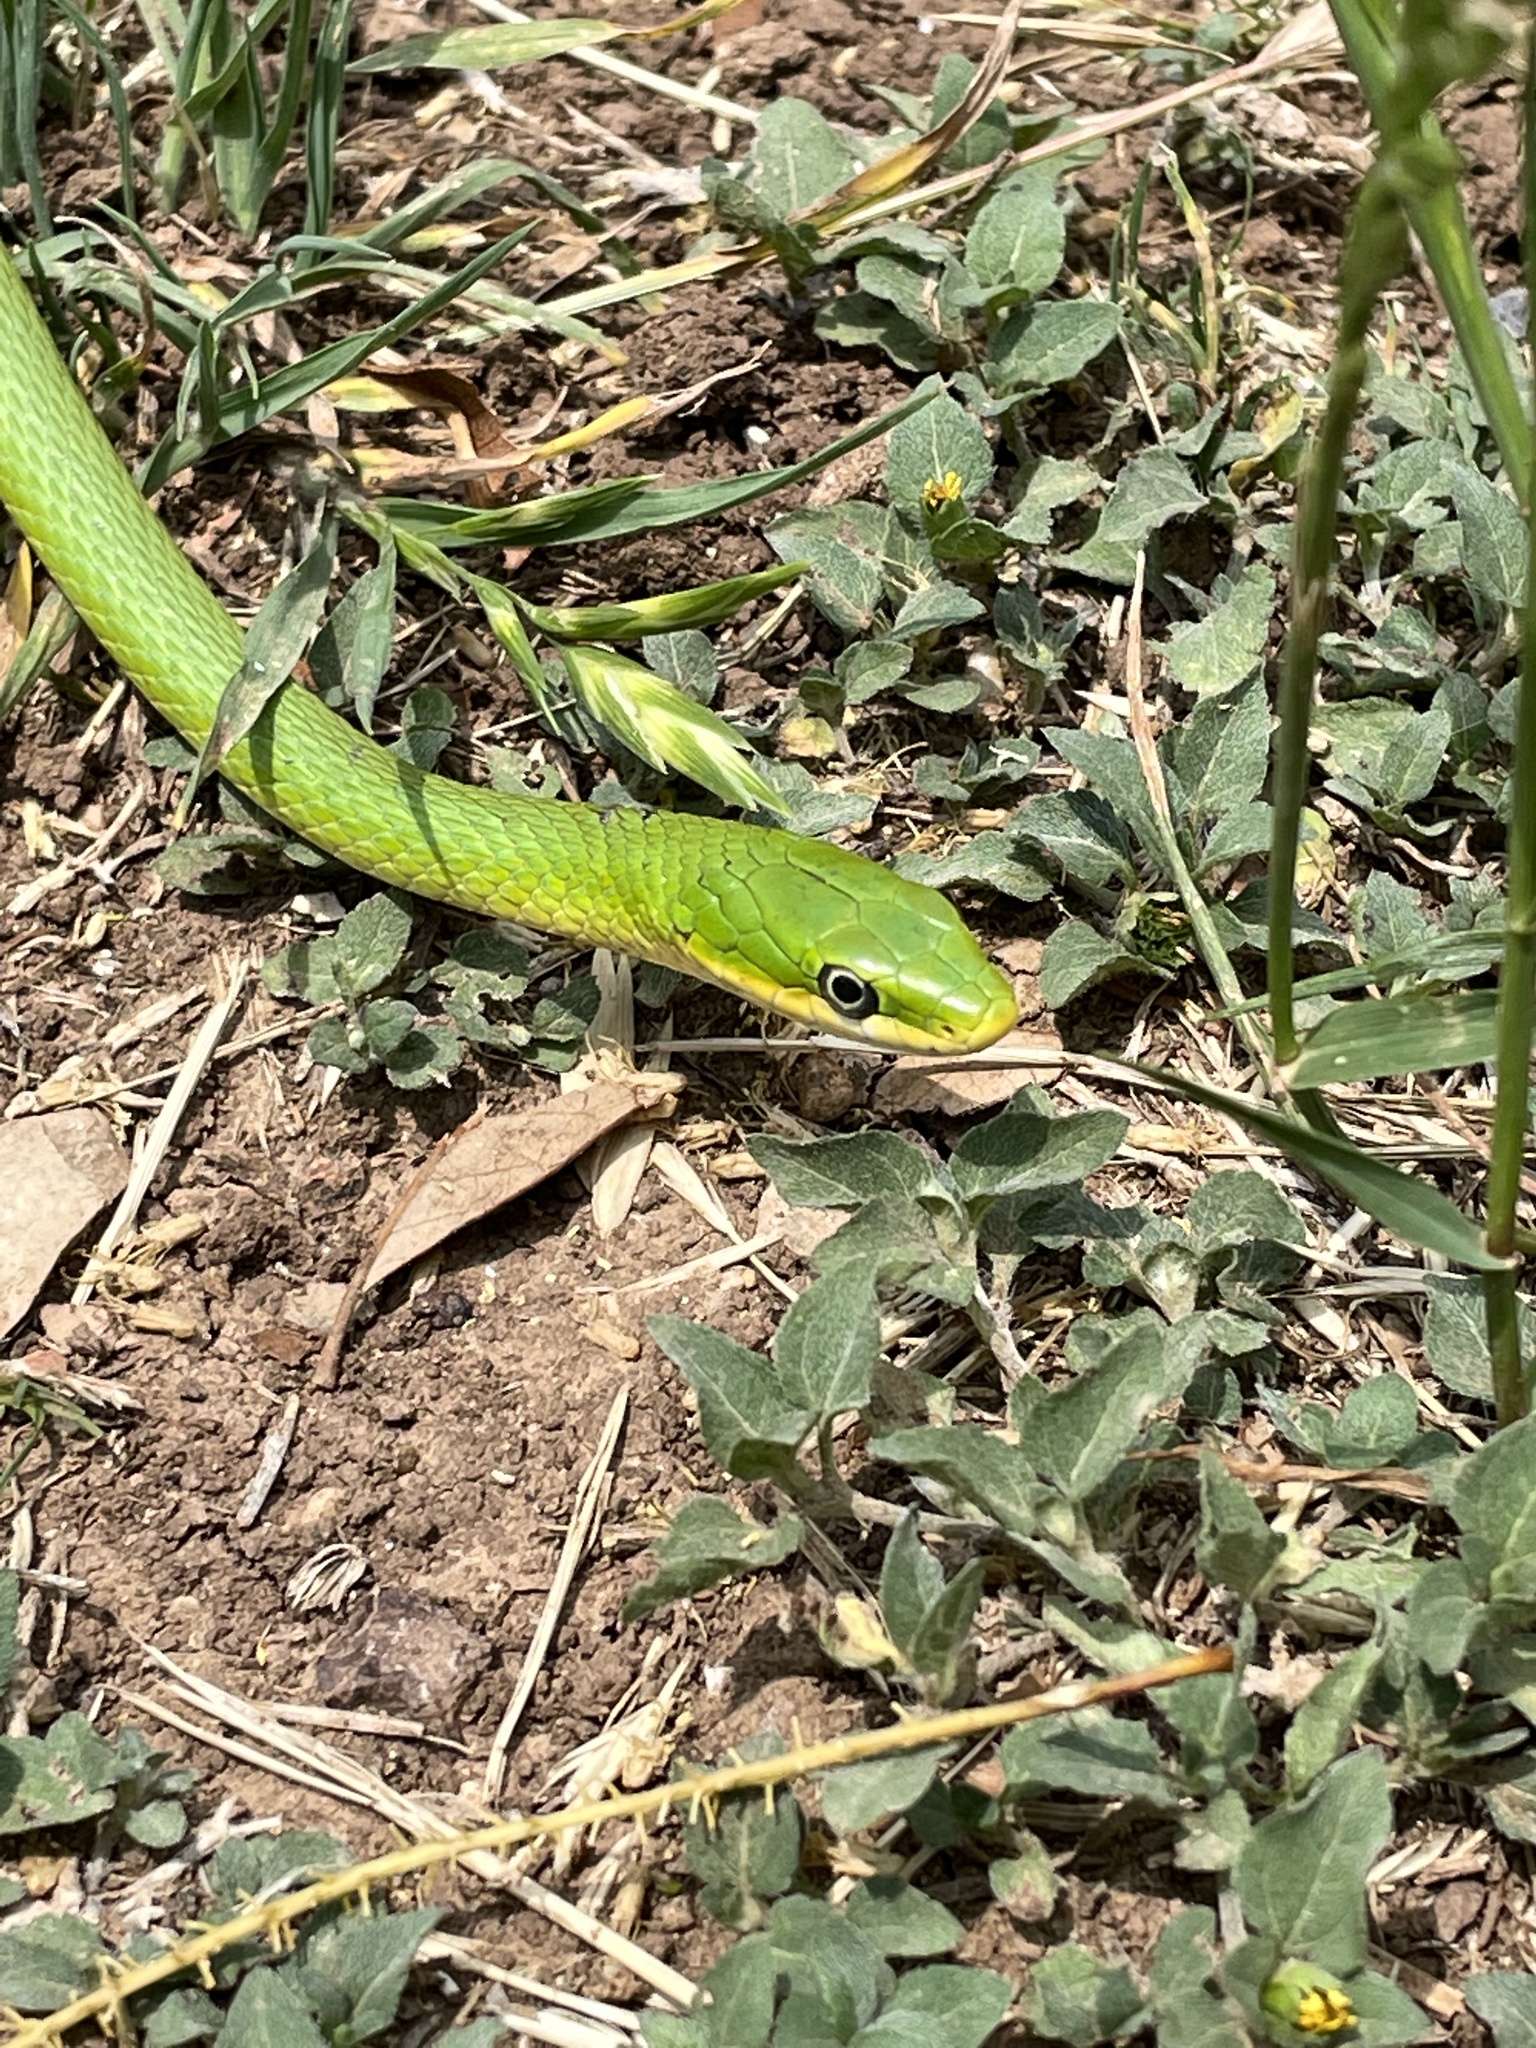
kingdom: Animalia
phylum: Chordata
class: Squamata
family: Colubridae
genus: Opheodrys
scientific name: Opheodrys aestivus
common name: Rough greensnake
